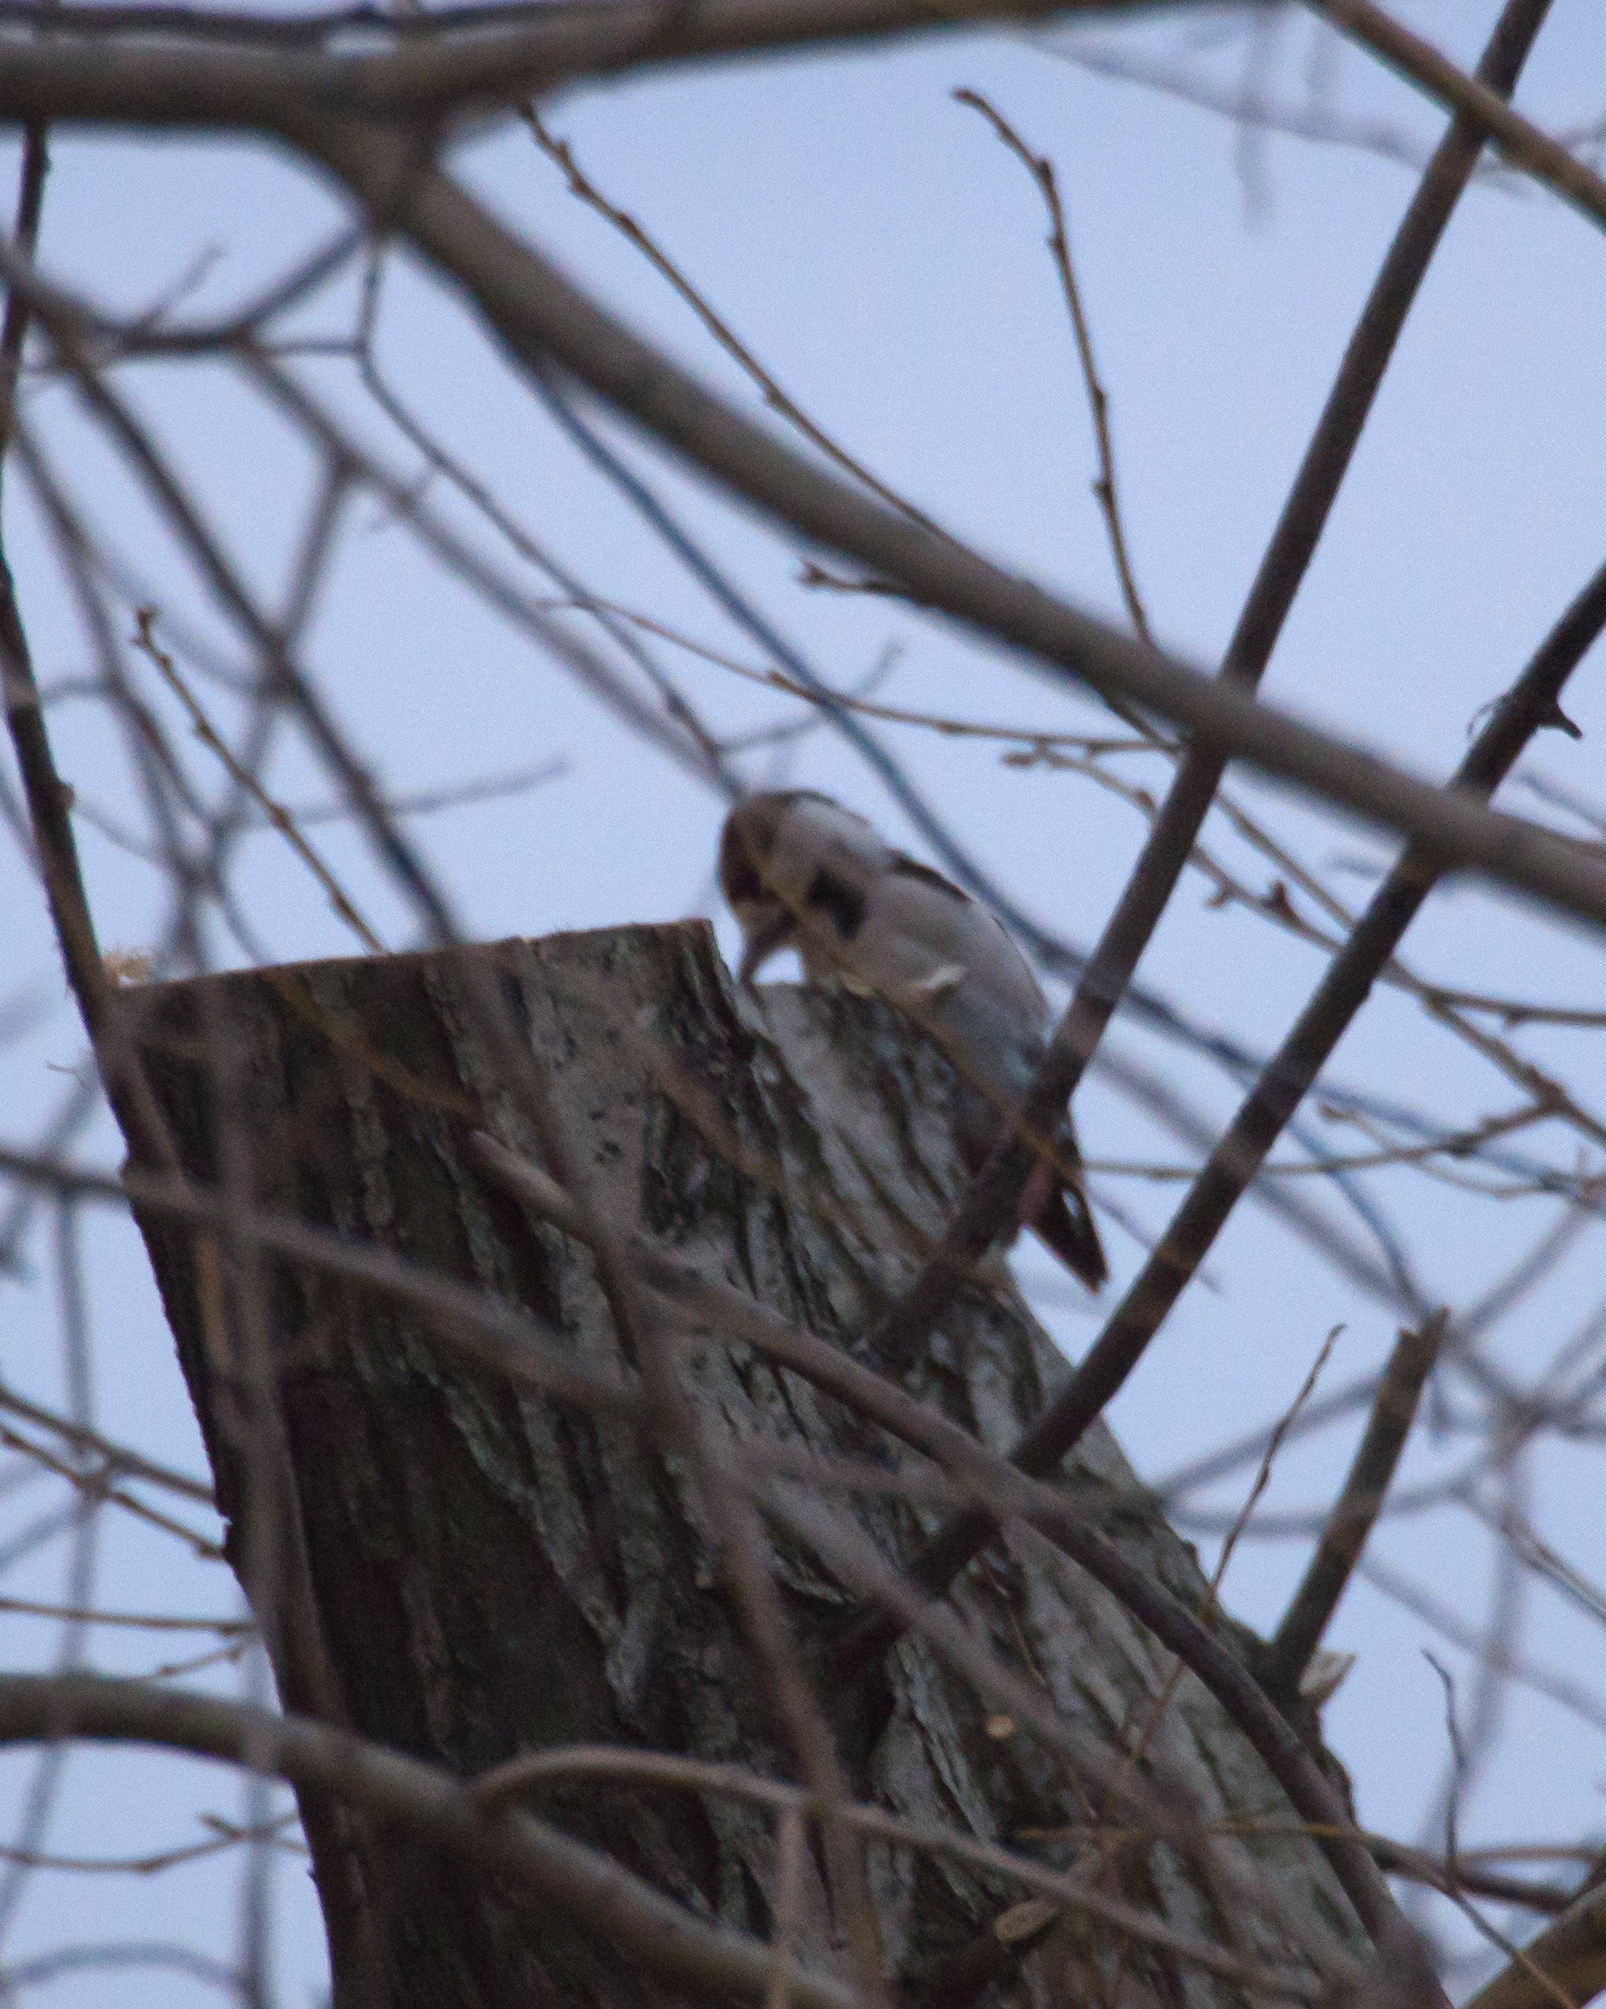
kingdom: Animalia
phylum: Chordata
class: Aves
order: Piciformes
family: Picidae
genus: Dendrocopos
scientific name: Dendrocopos syriacus
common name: Syrian woodpecker
